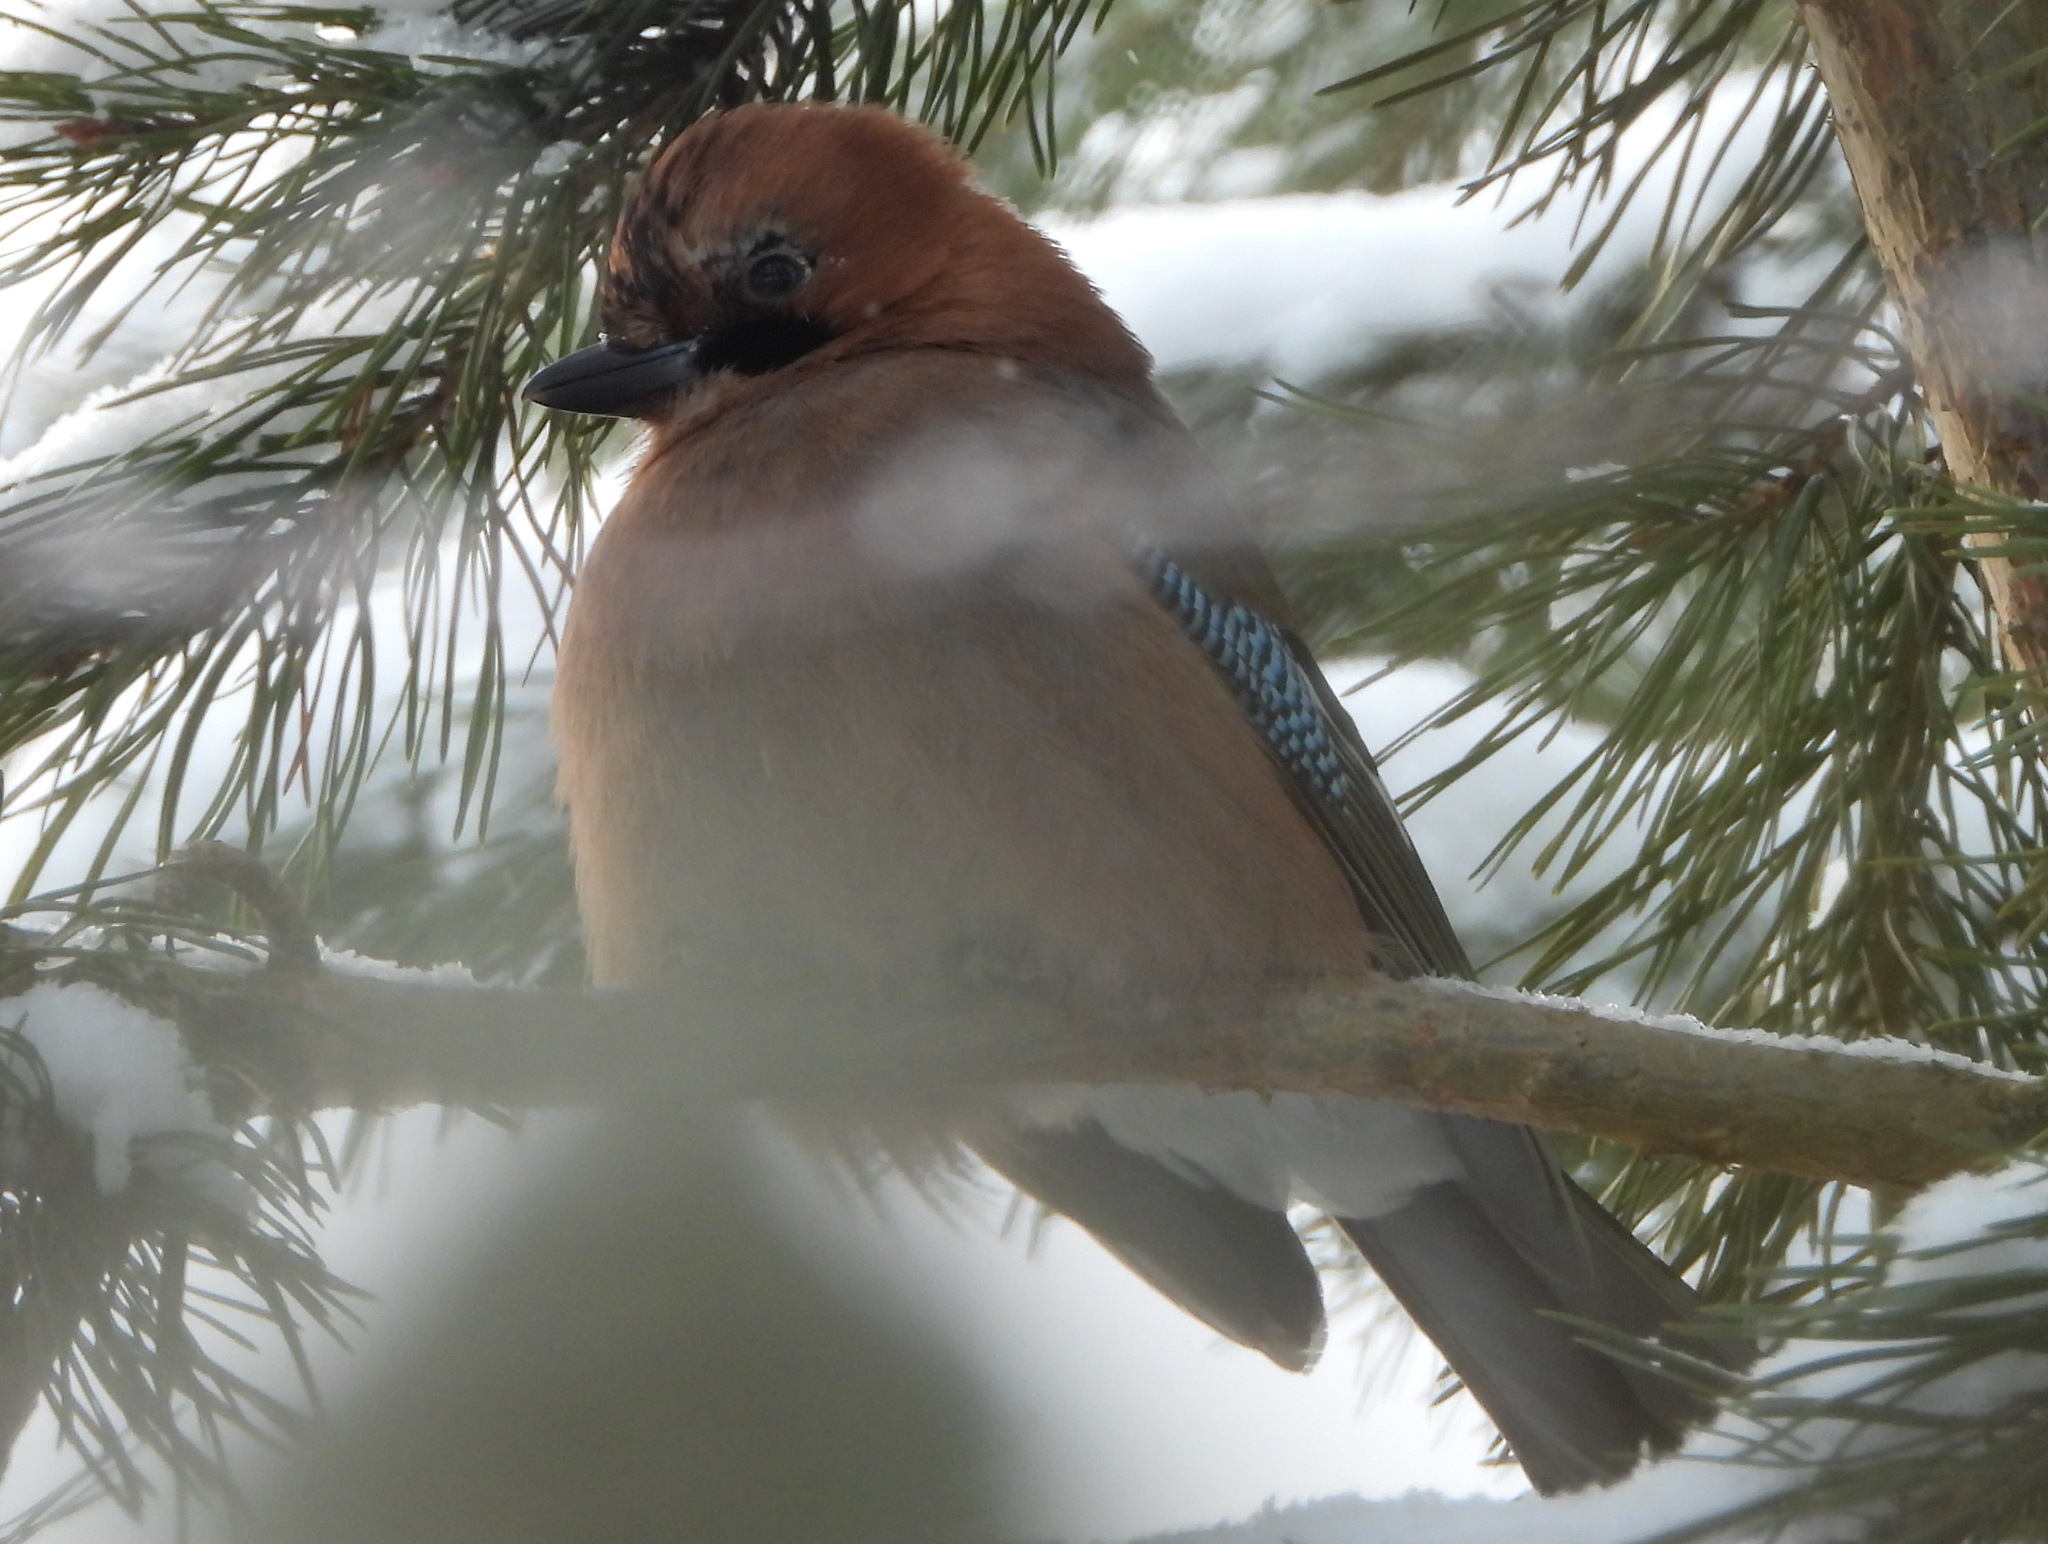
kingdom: Animalia
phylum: Chordata
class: Aves
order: Passeriformes
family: Corvidae
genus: Garrulus
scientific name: Garrulus glandarius
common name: Eurasian jay
